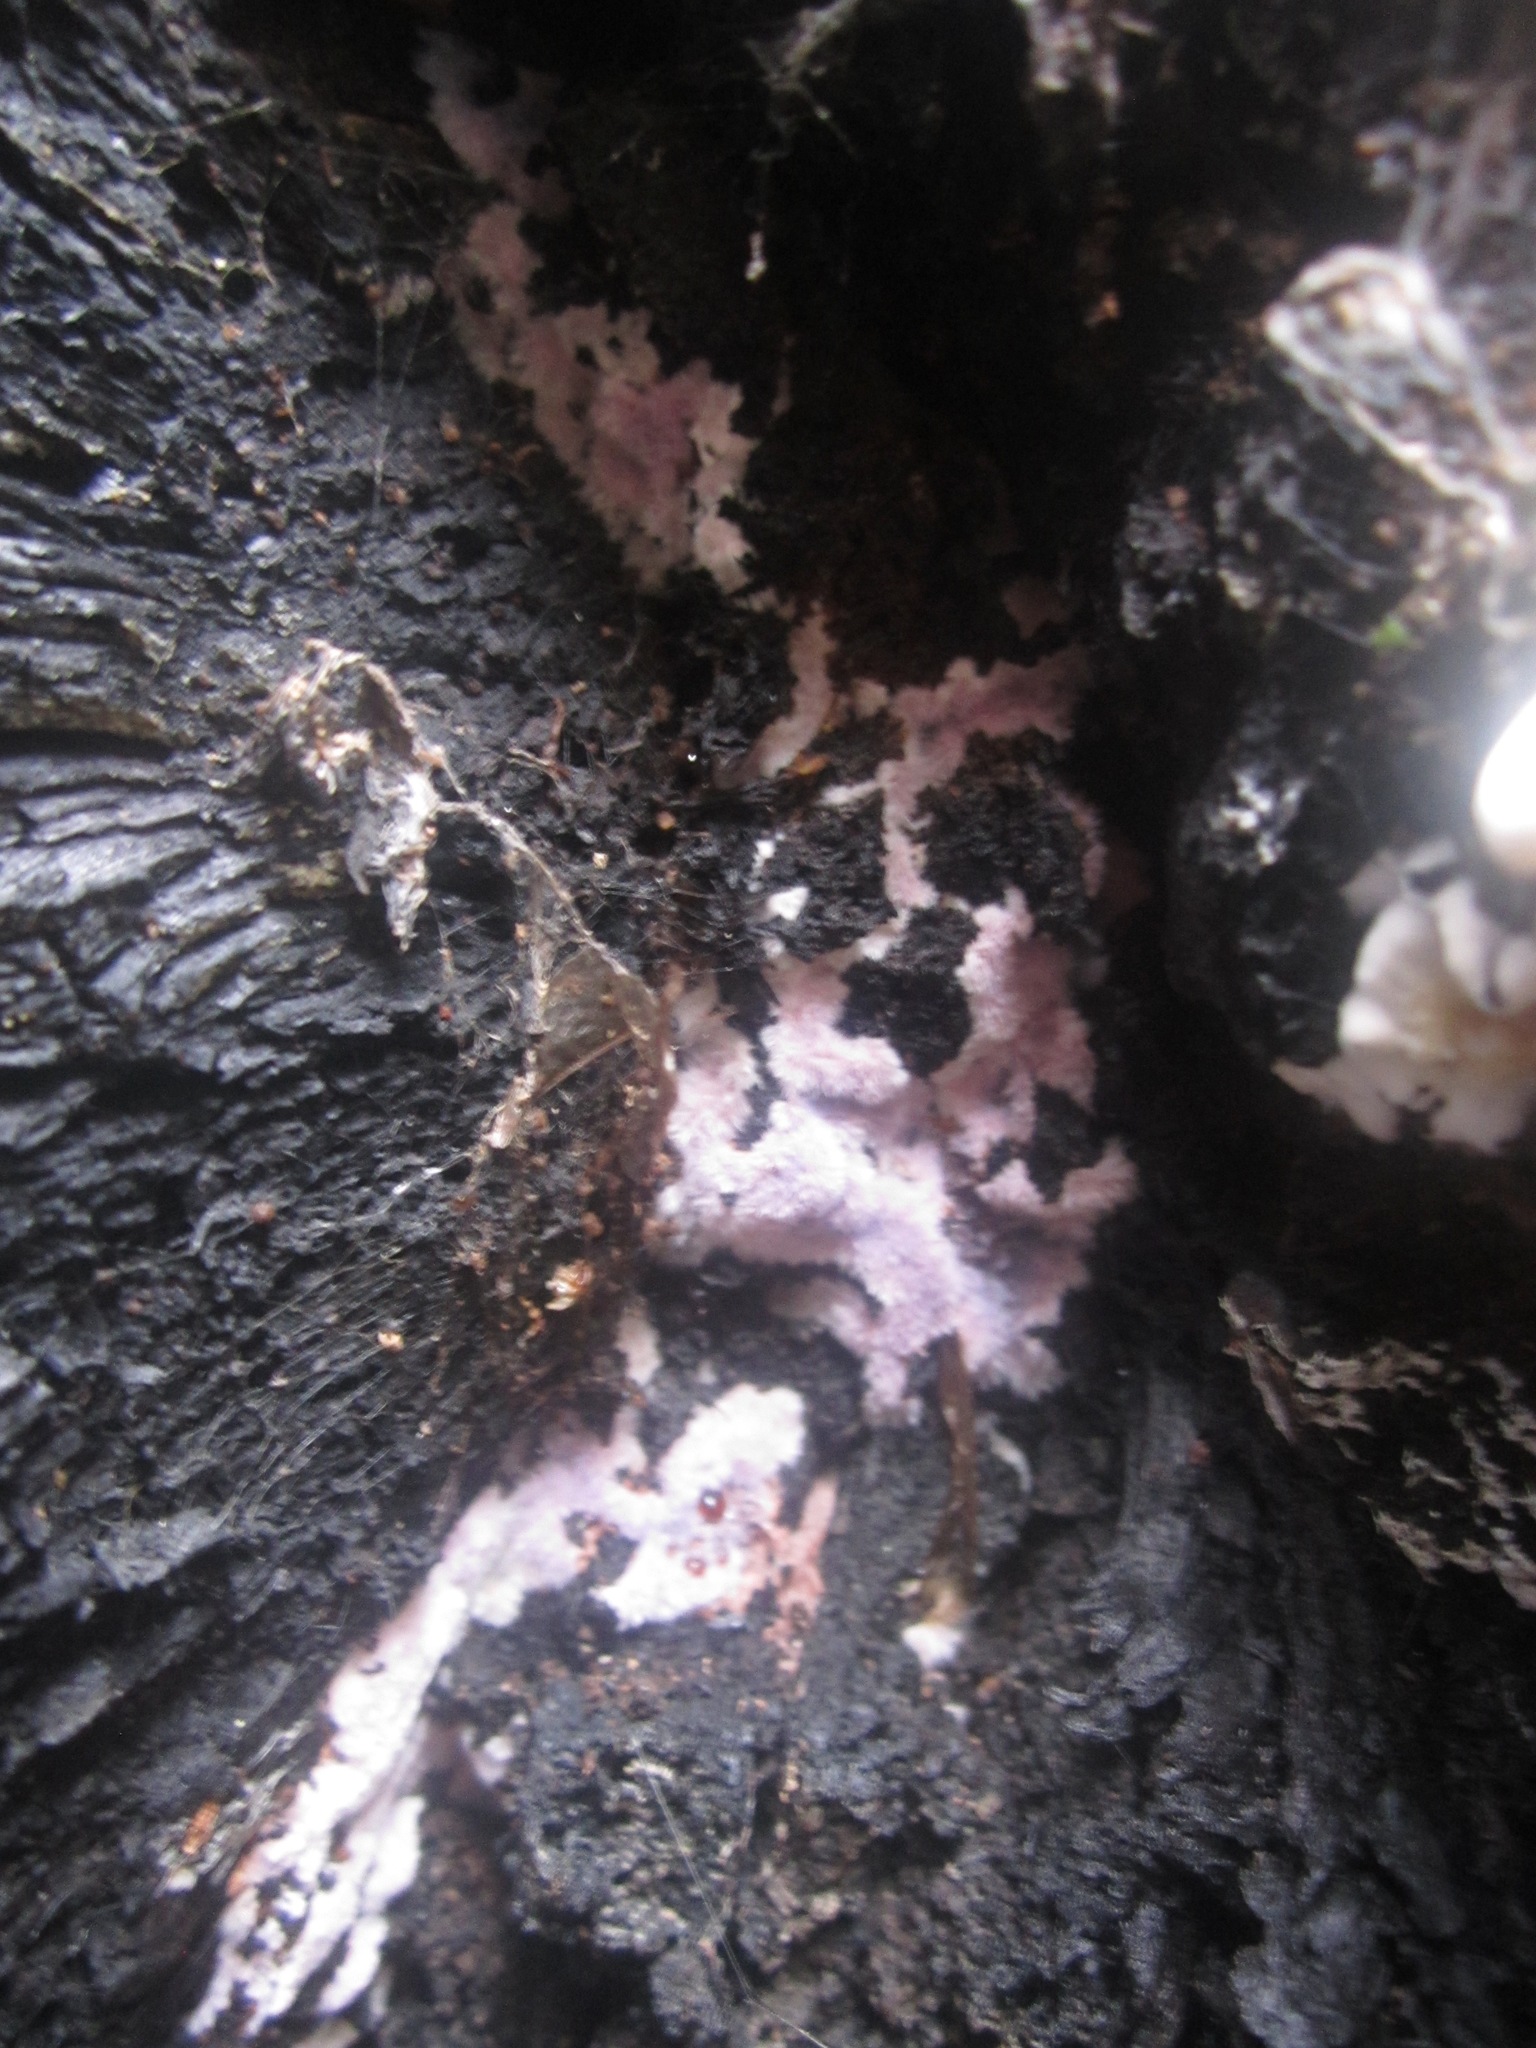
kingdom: Fungi
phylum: Basidiomycota
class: Agaricomycetes
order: Corticiales
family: Punctulariaceae
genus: Punctularia
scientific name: Punctularia atropurpurascens
